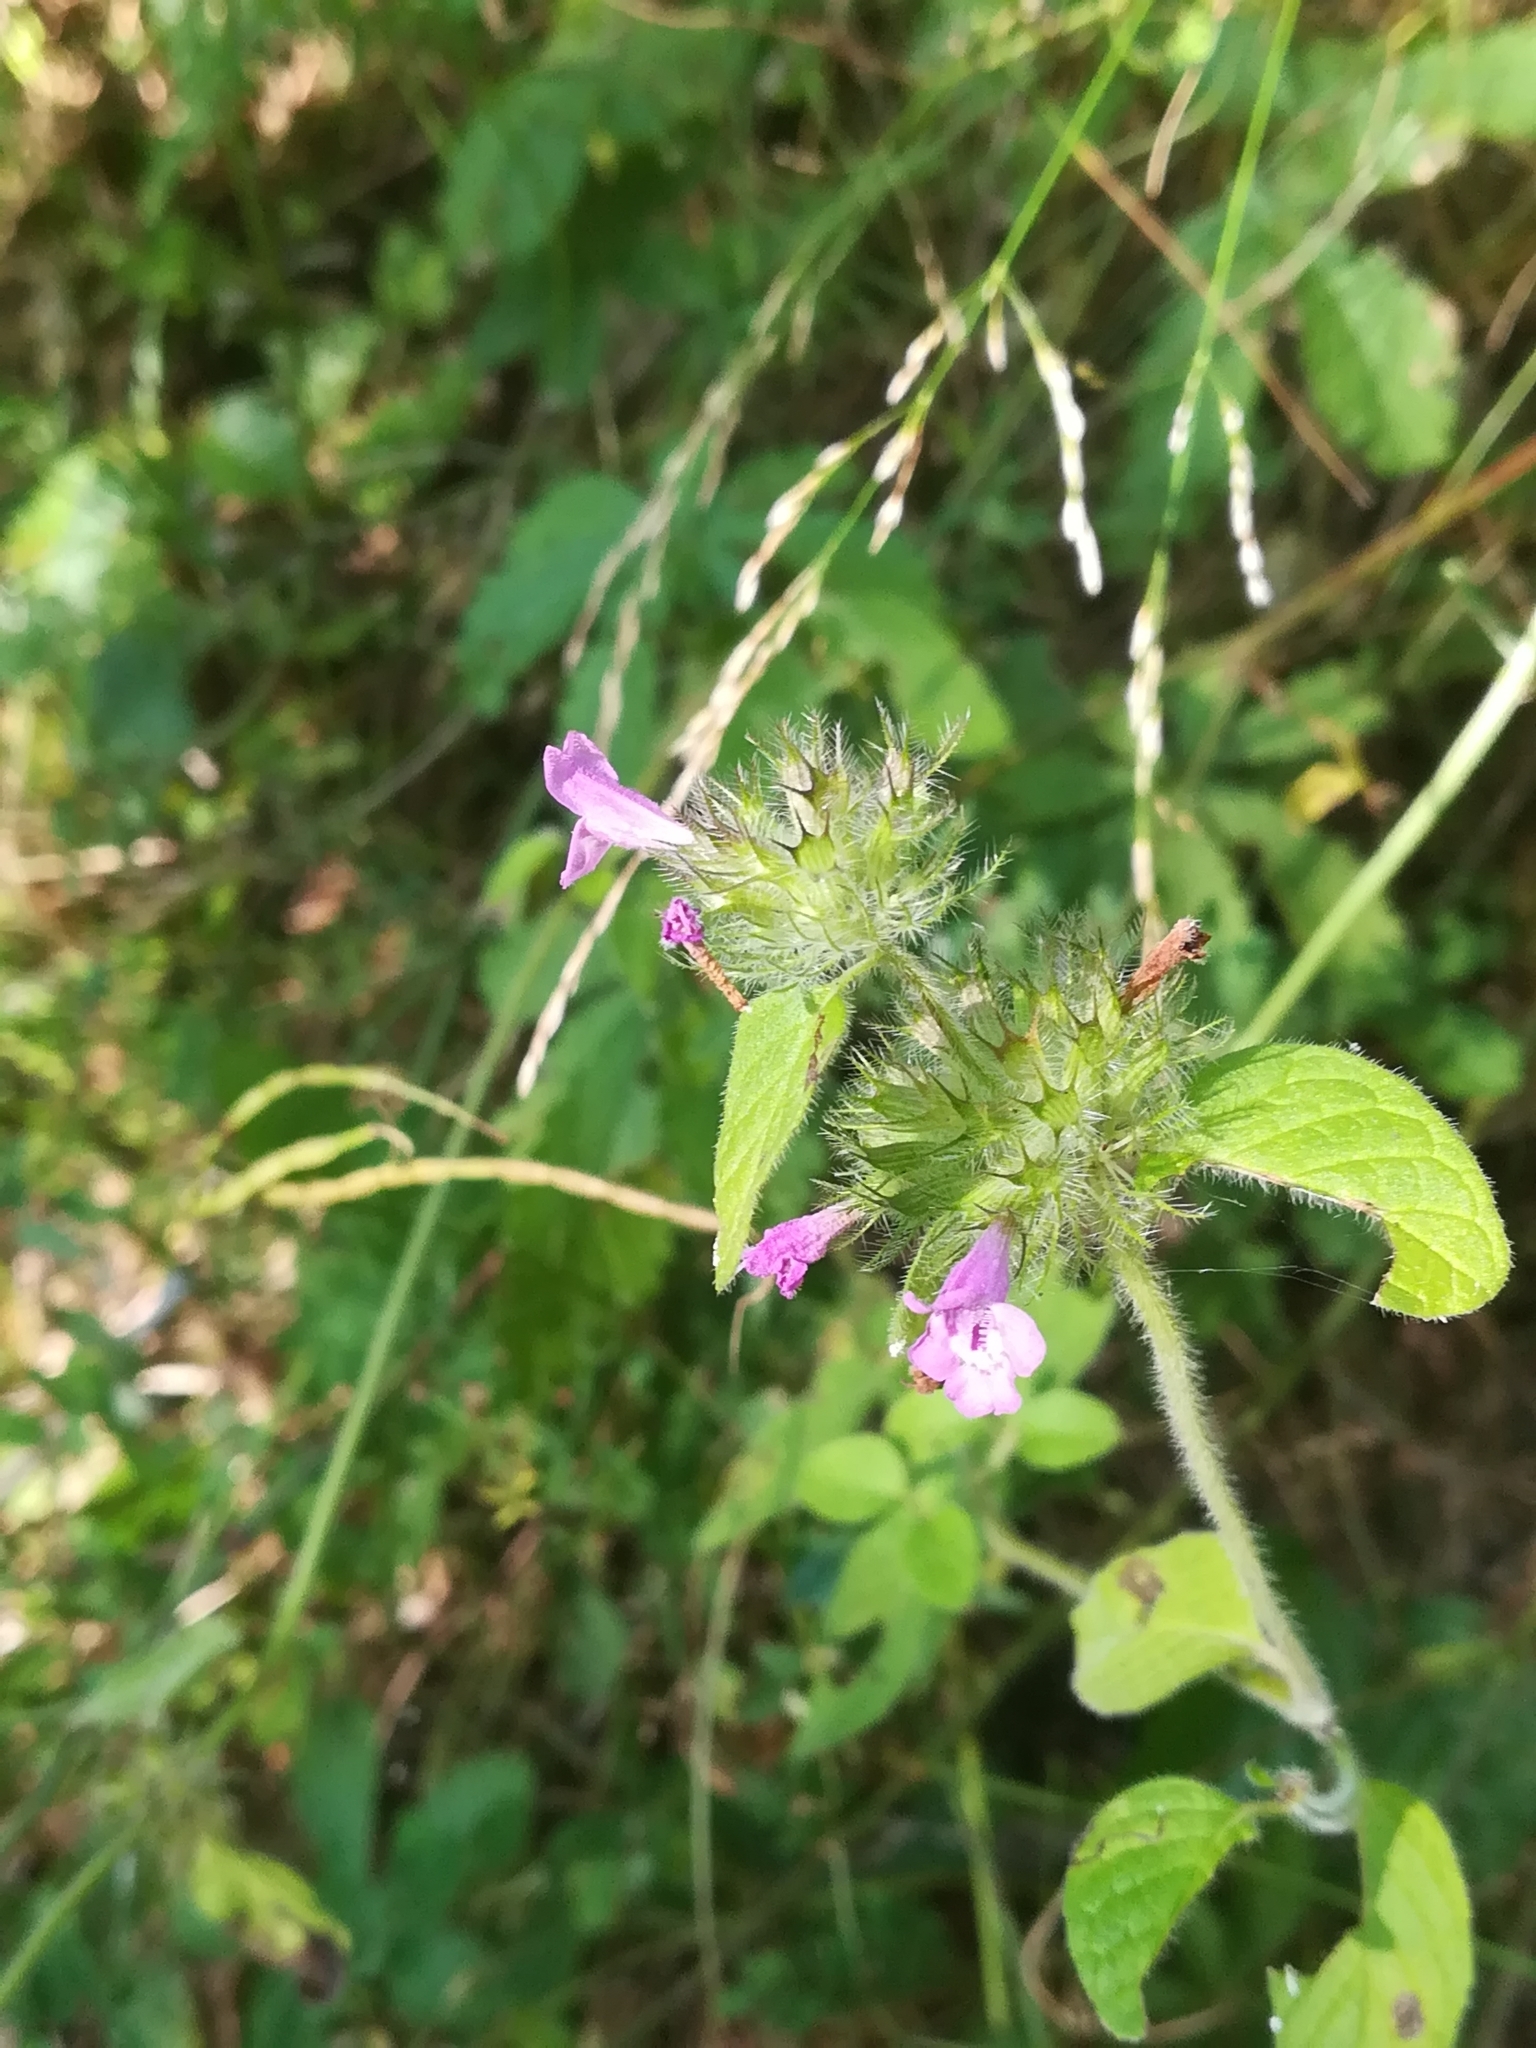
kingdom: Plantae
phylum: Tracheophyta
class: Magnoliopsida
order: Lamiales
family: Lamiaceae
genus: Clinopodium
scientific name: Clinopodium vulgare
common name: Wild basil
